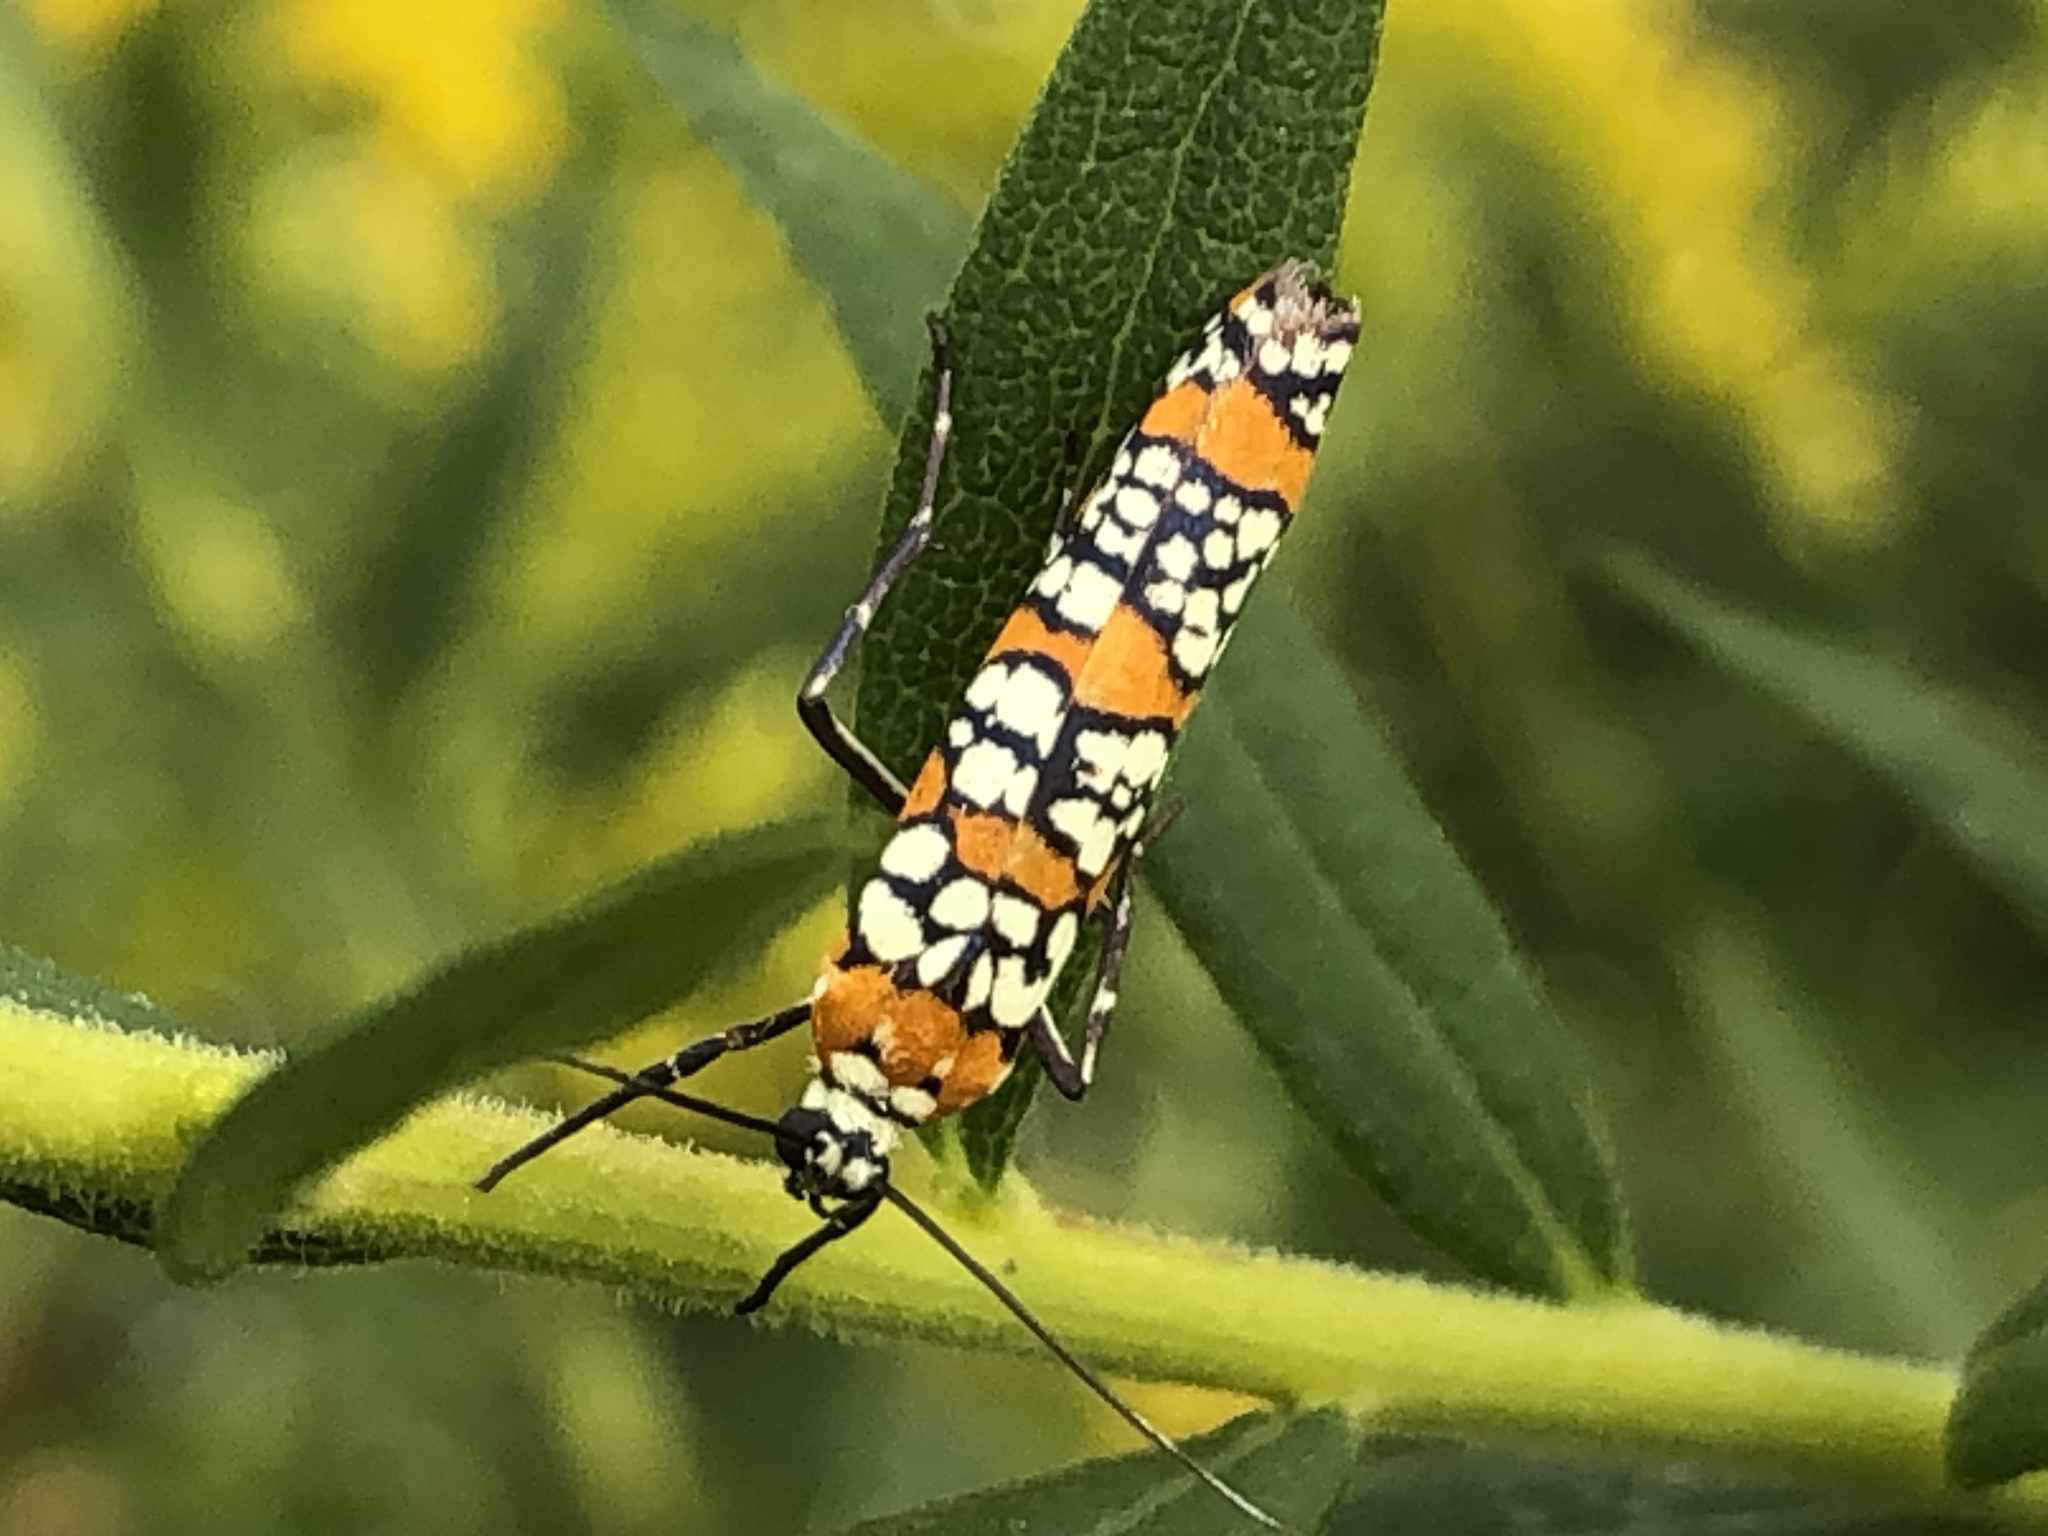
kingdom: Animalia
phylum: Arthropoda
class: Insecta
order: Lepidoptera
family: Attevidae
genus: Atteva
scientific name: Atteva punctella
